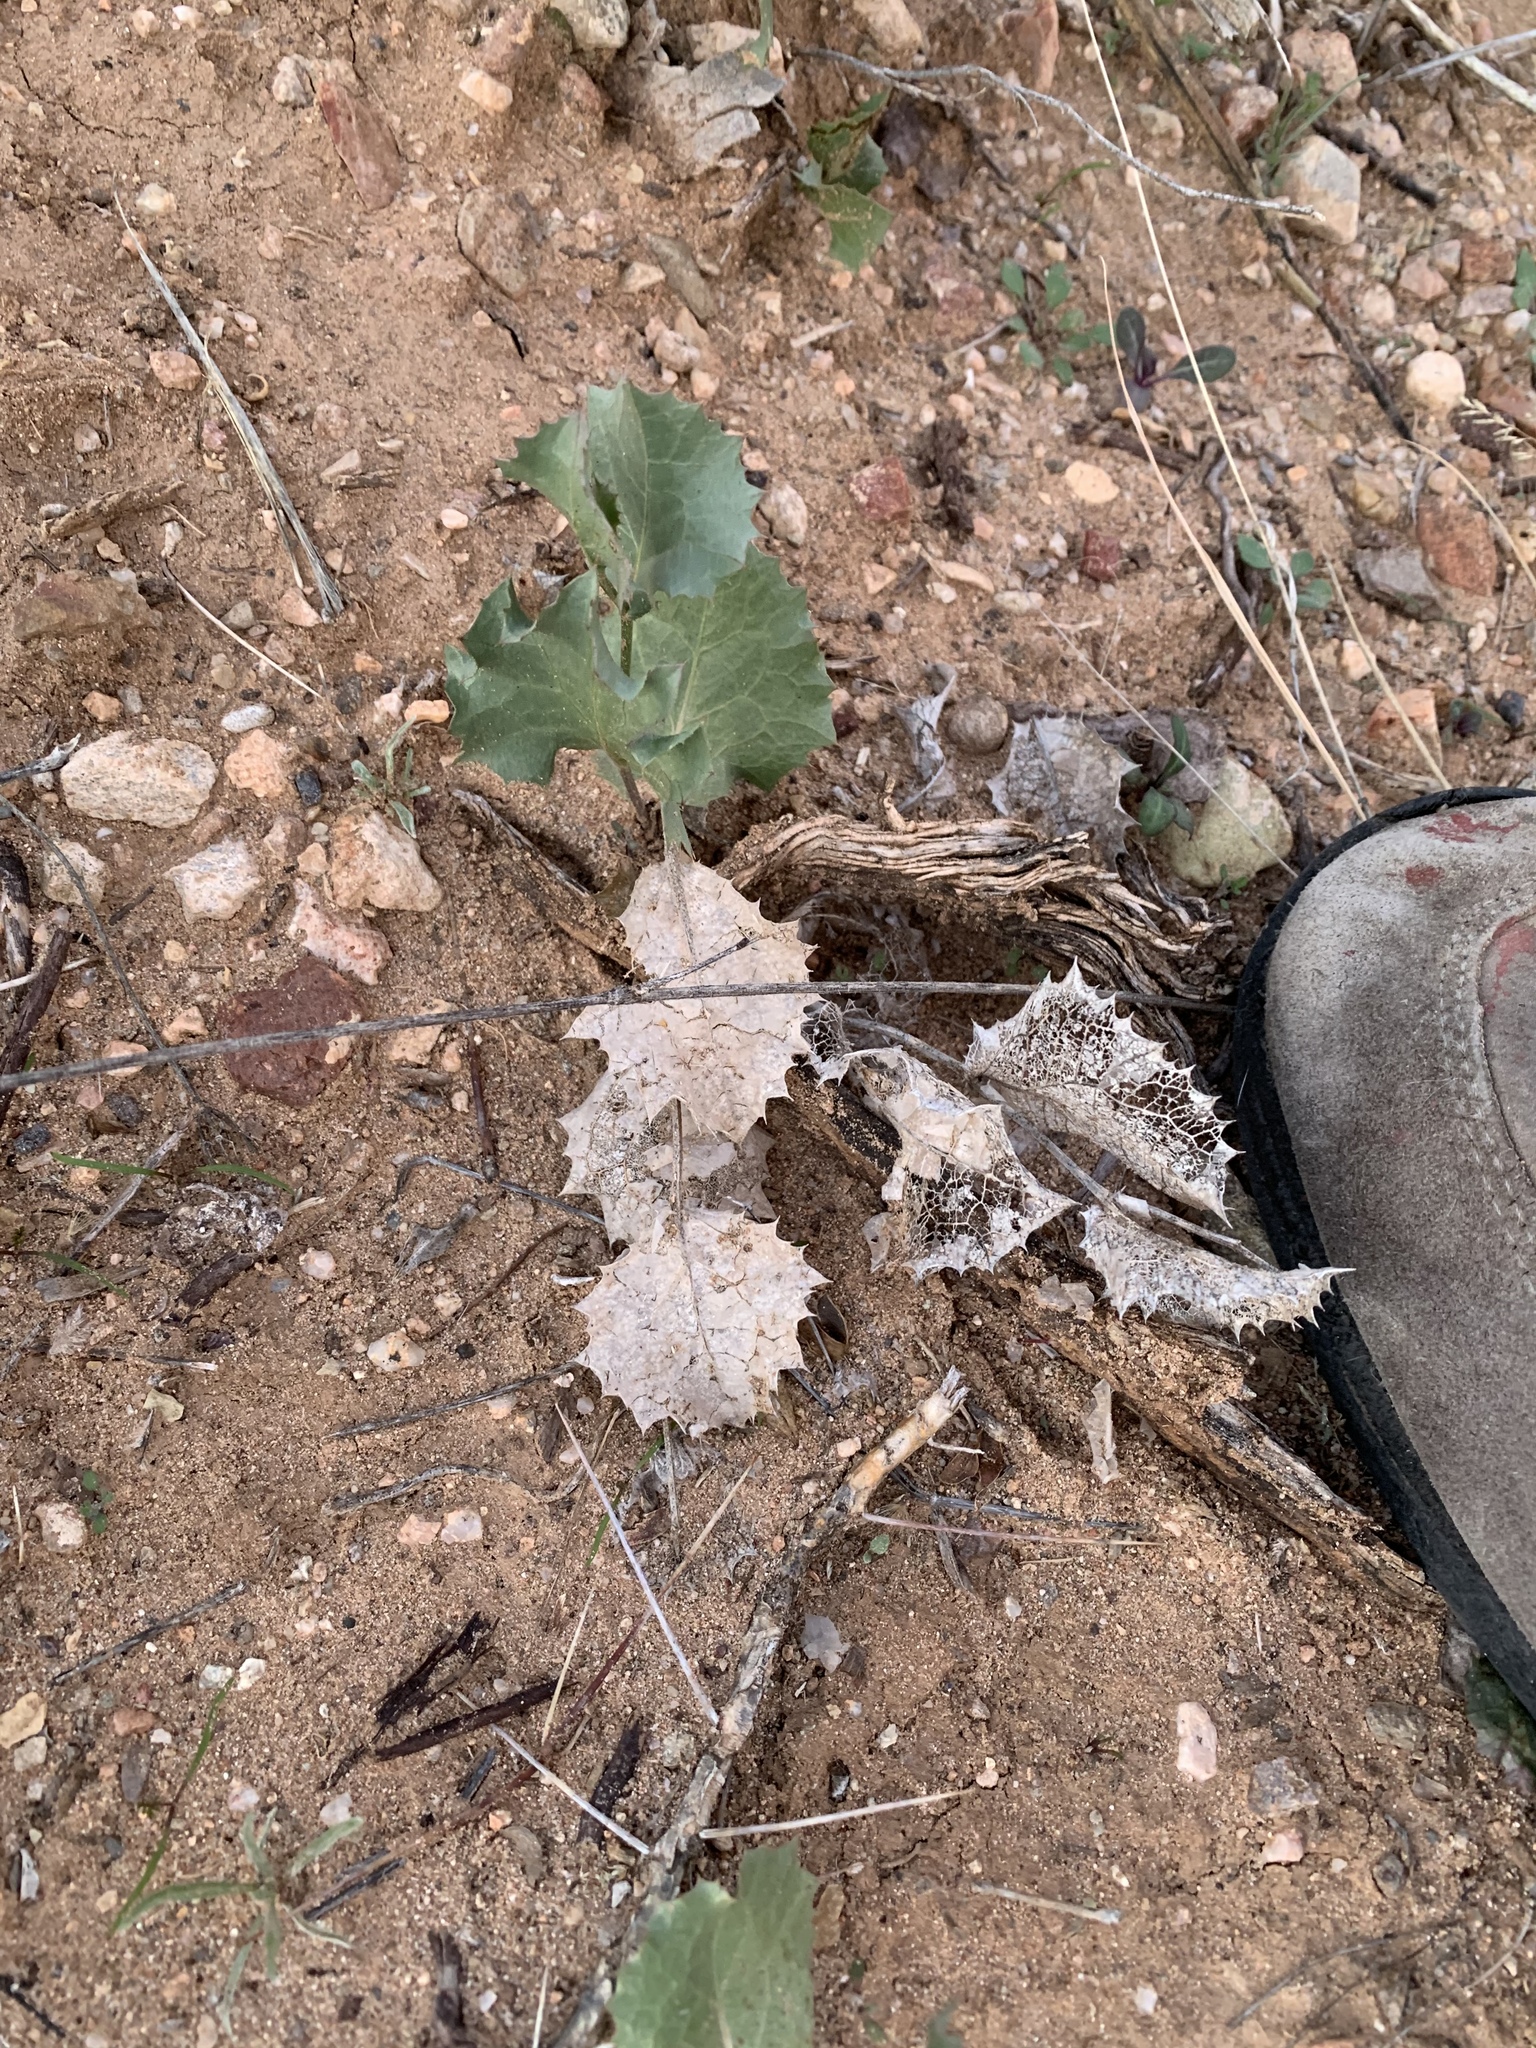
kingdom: Plantae
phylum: Tracheophyta
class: Magnoliopsida
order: Asterales
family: Asteraceae
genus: Acourtia
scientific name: Acourtia nana
